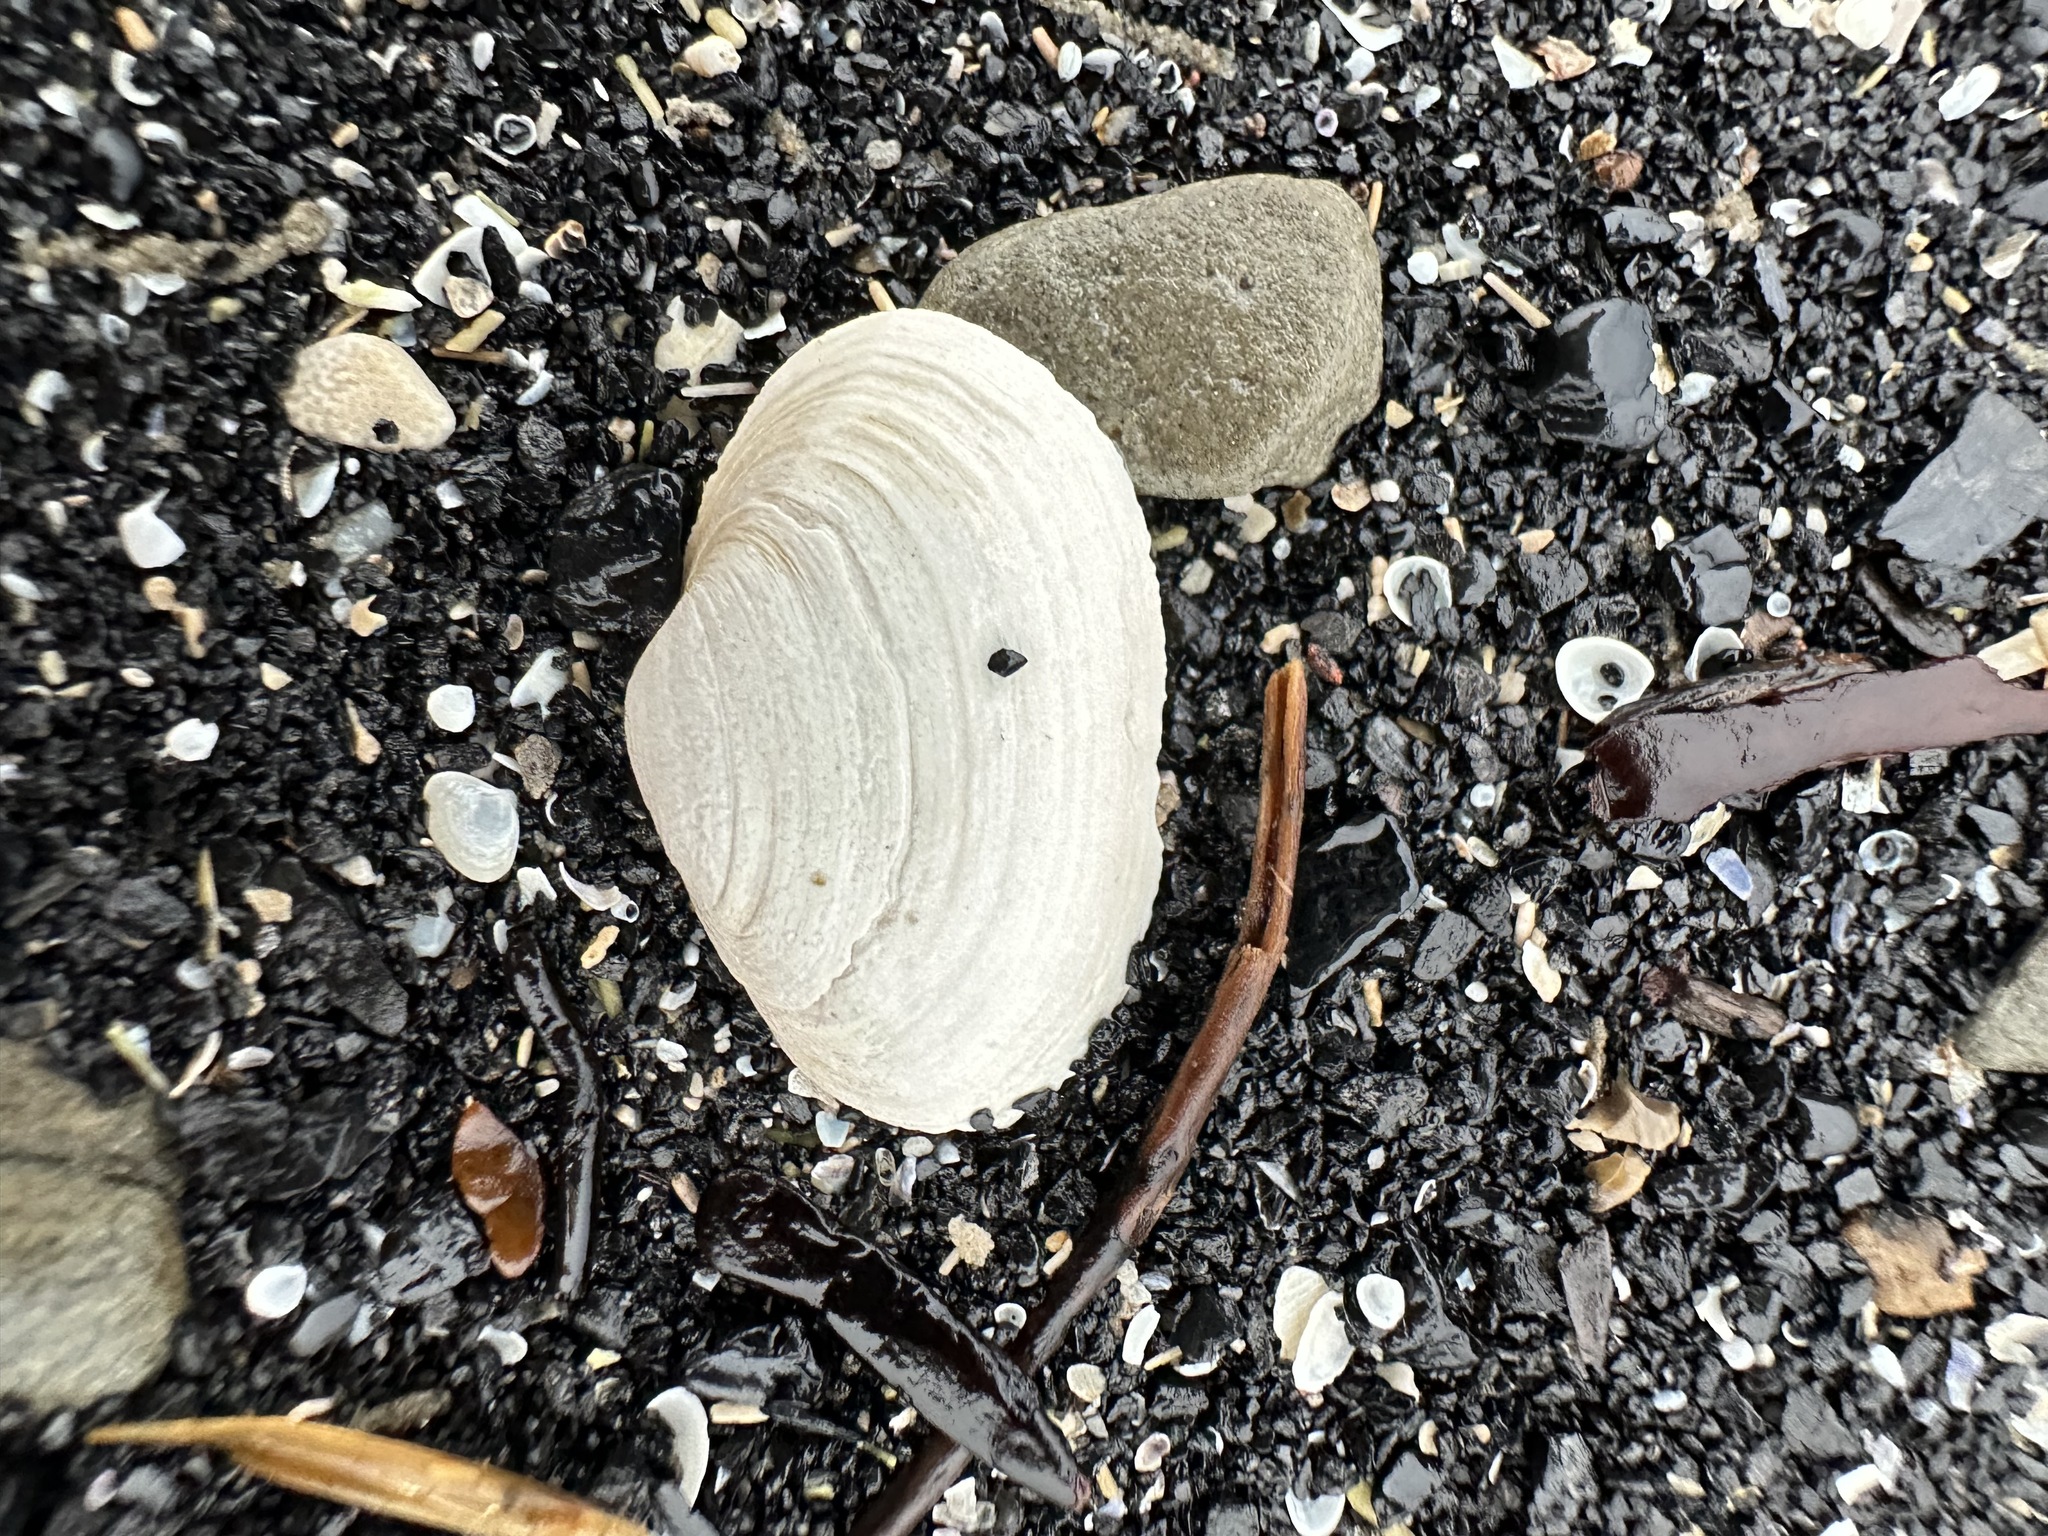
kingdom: Animalia
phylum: Mollusca
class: Bivalvia
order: Myida
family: Myidae
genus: Mya
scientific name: Mya arenaria
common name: Soft-shelled clam
